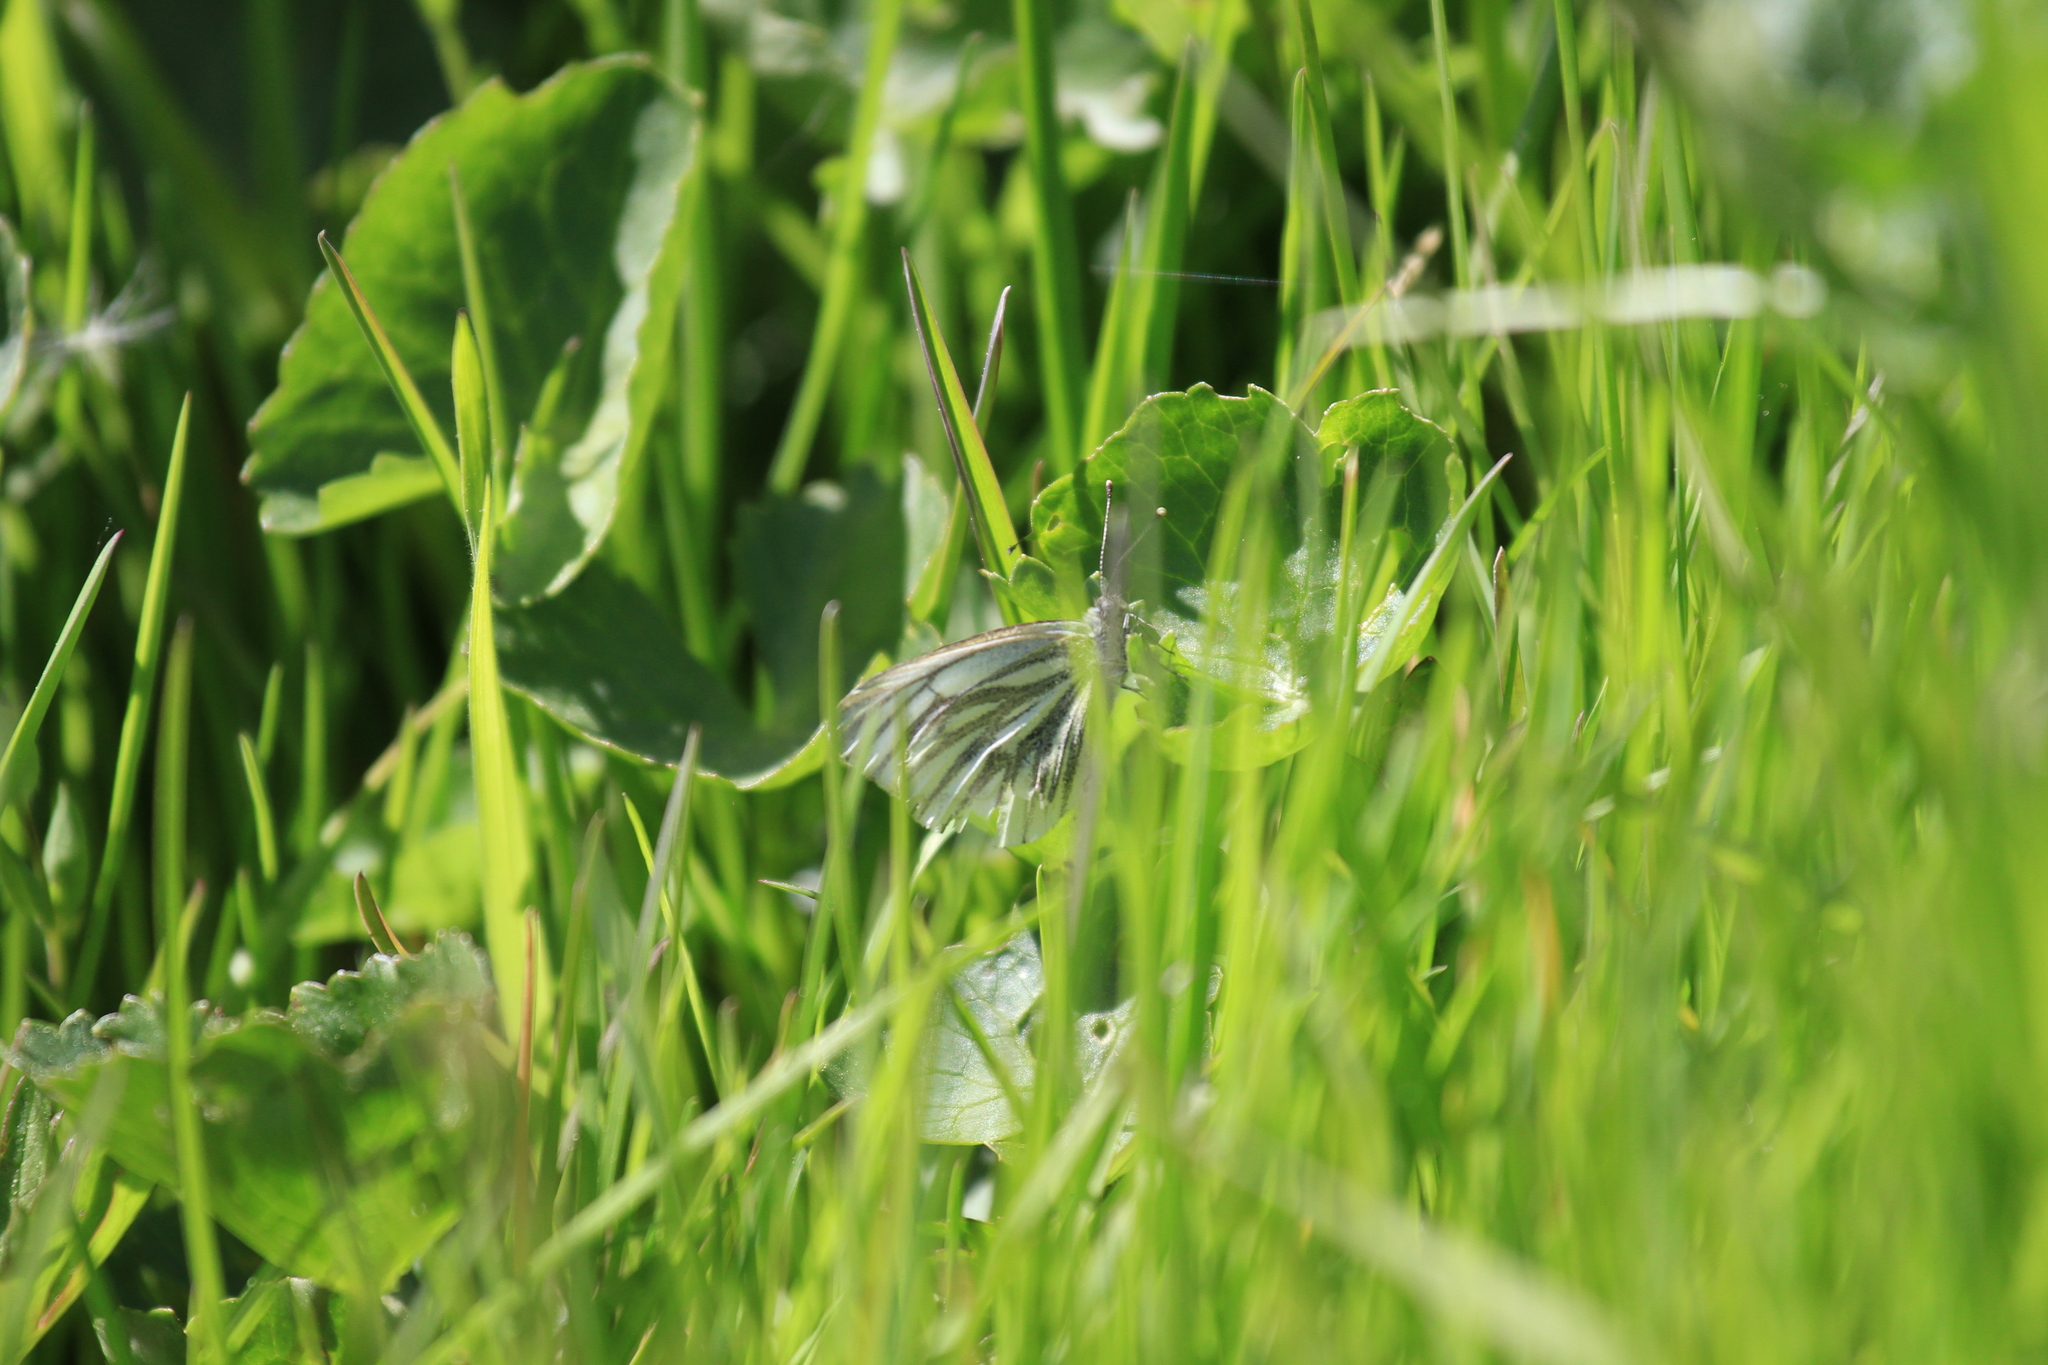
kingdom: Animalia
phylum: Arthropoda
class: Insecta
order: Lepidoptera
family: Pieridae
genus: Pieris
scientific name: Pieris napi
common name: Green-veined white
